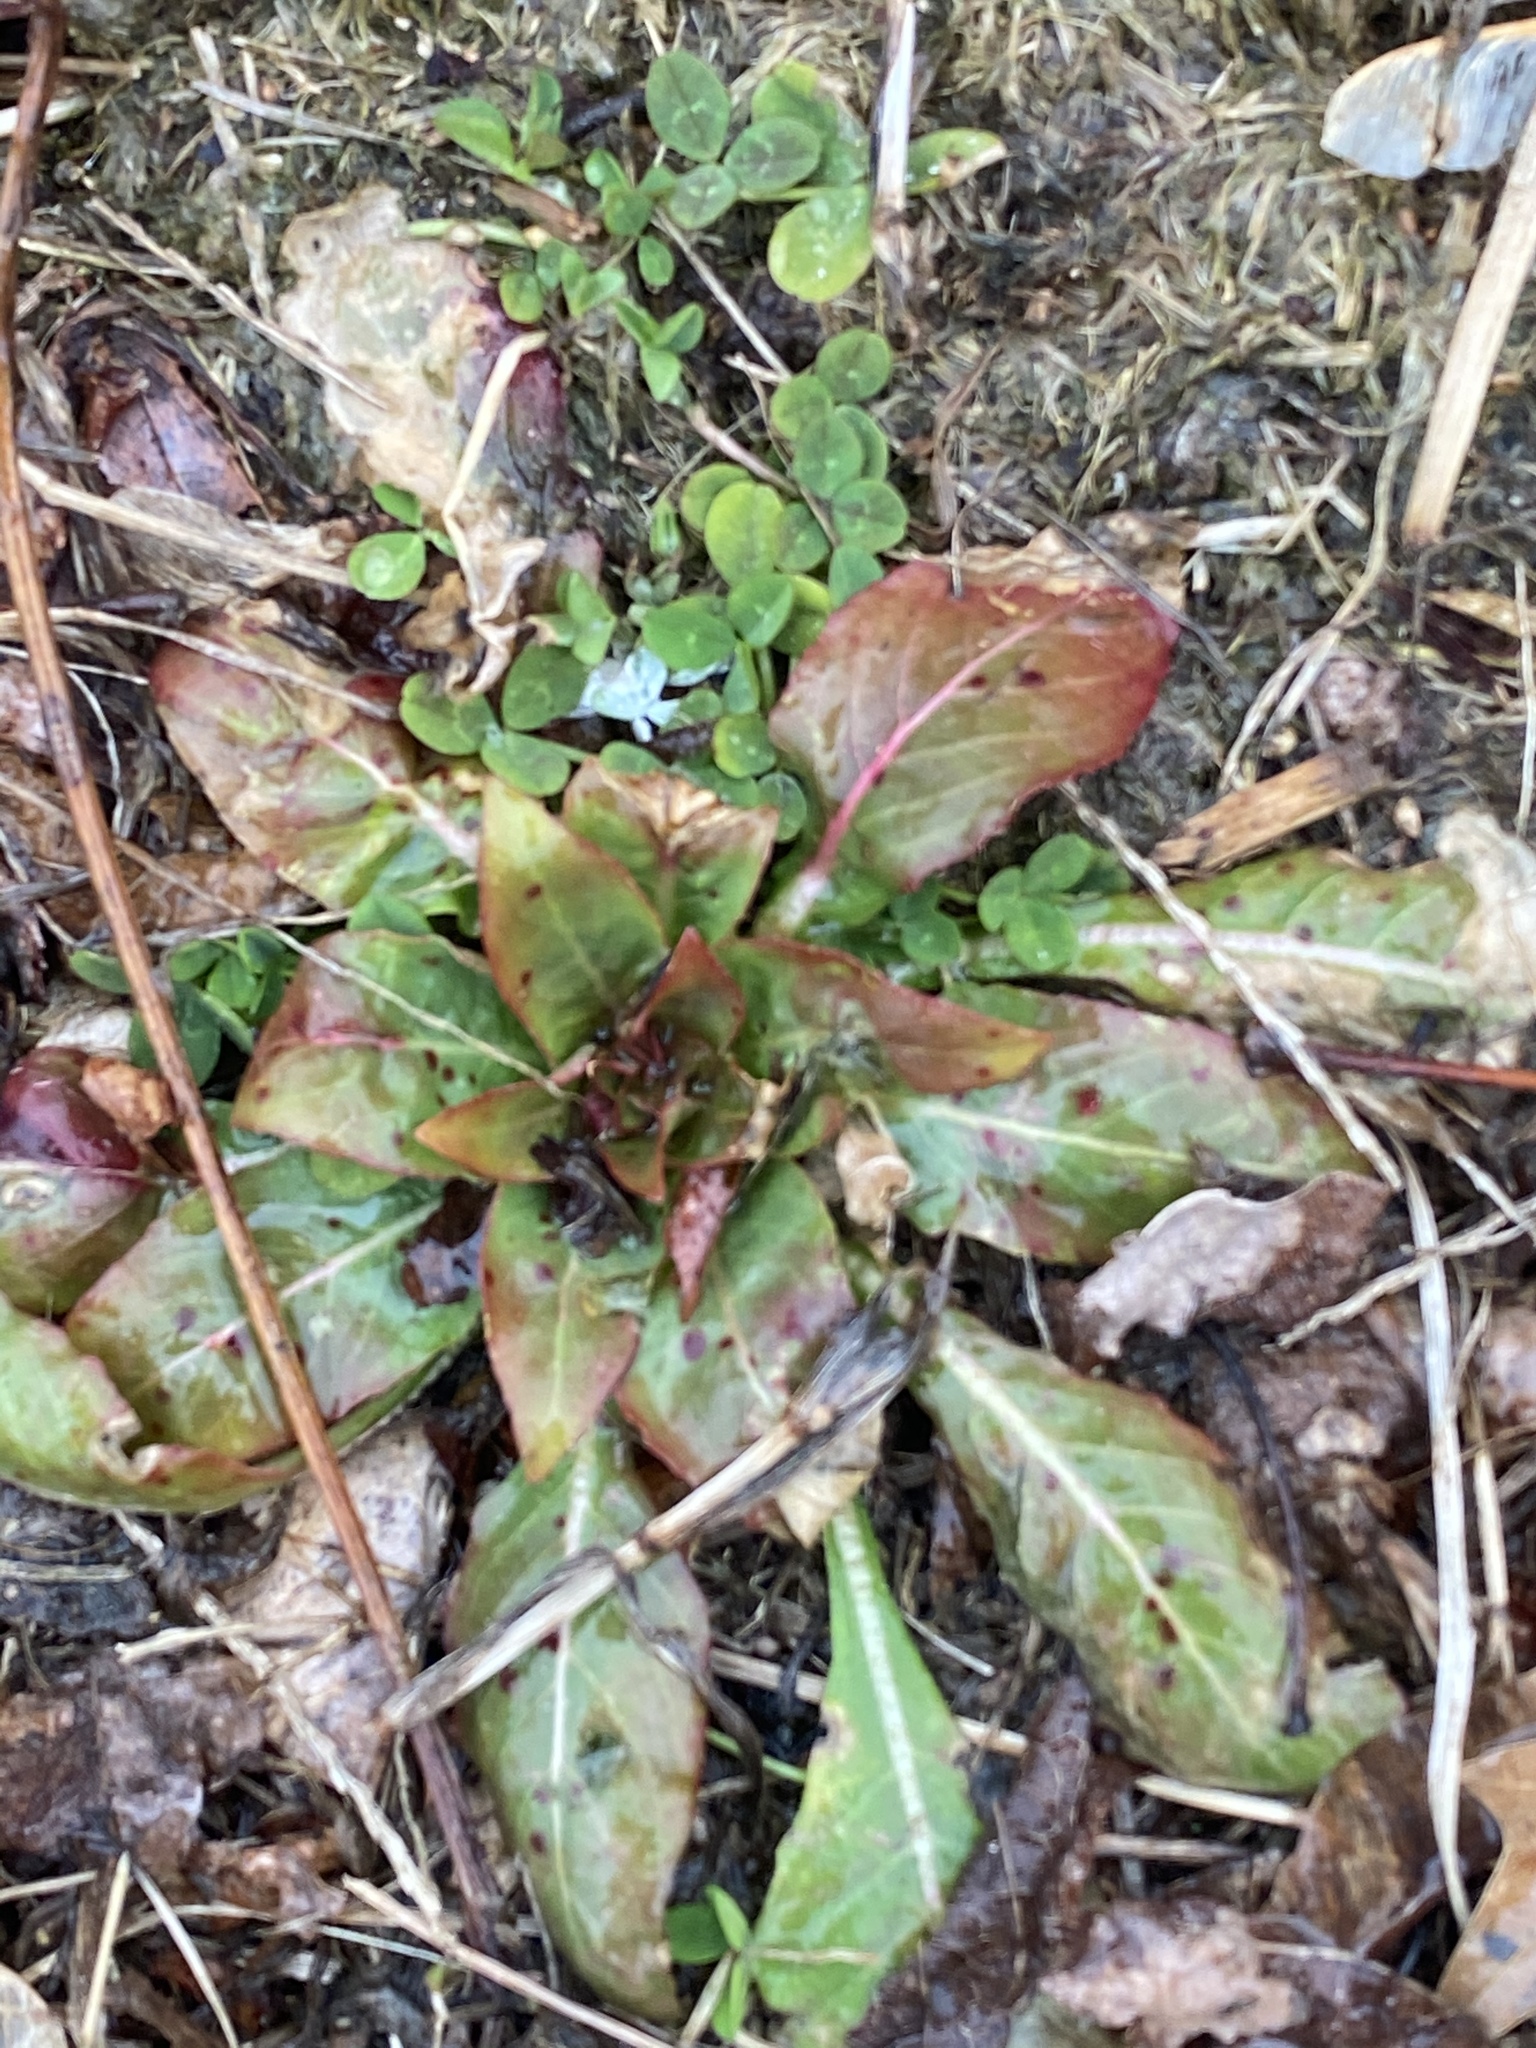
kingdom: Plantae
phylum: Tracheophyta
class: Magnoliopsida
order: Myrtales
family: Onagraceae
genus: Oenothera
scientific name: Oenothera biennis
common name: Common evening-primrose
